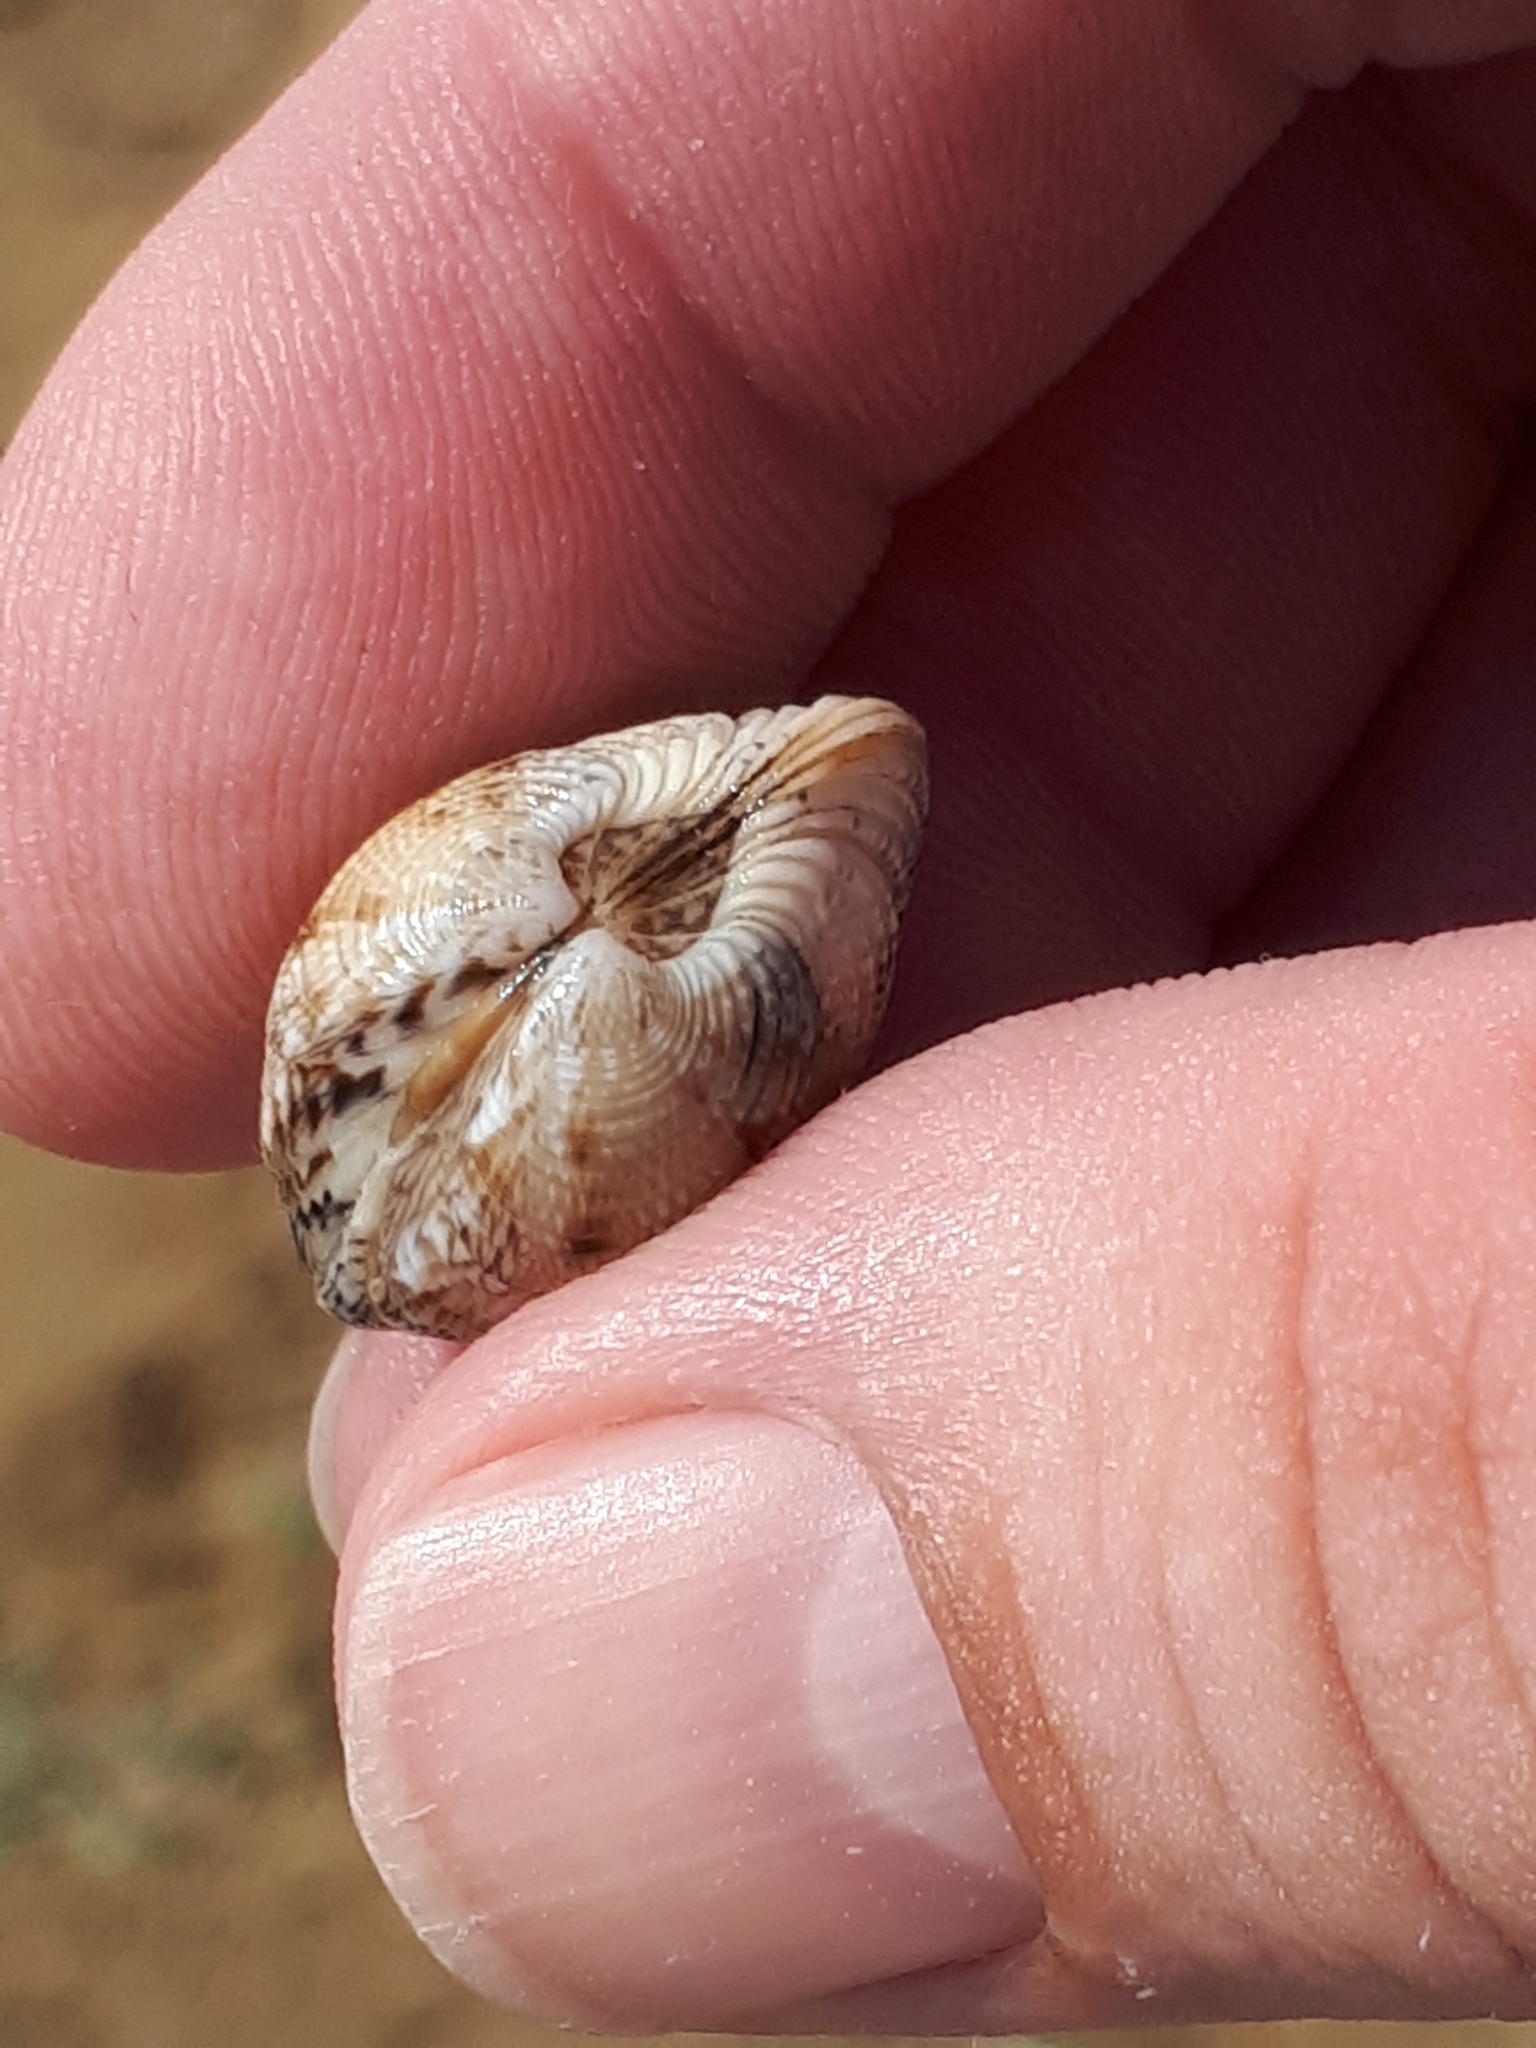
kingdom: Animalia
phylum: Mollusca
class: Bivalvia
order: Venerida
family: Veneridae
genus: Chamelea
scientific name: Chamelea gallina
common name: Chicken venus
